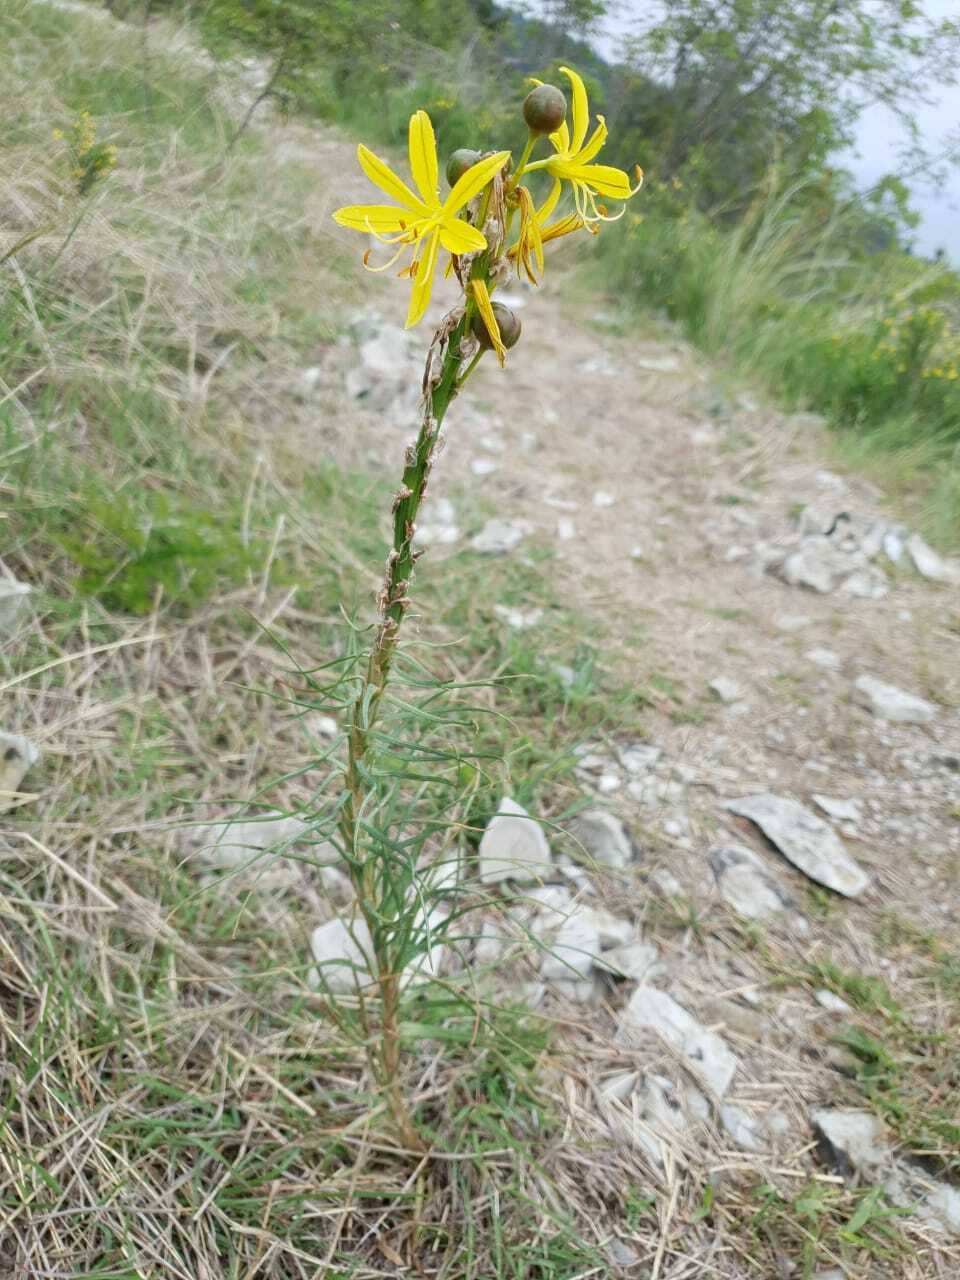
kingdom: Plantae
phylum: Tracheophyta
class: Liliopsida
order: Asparagales
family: Asphodelaceae
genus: Asphodeline
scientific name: Asphodeline lutea
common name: Yellow asphodel
